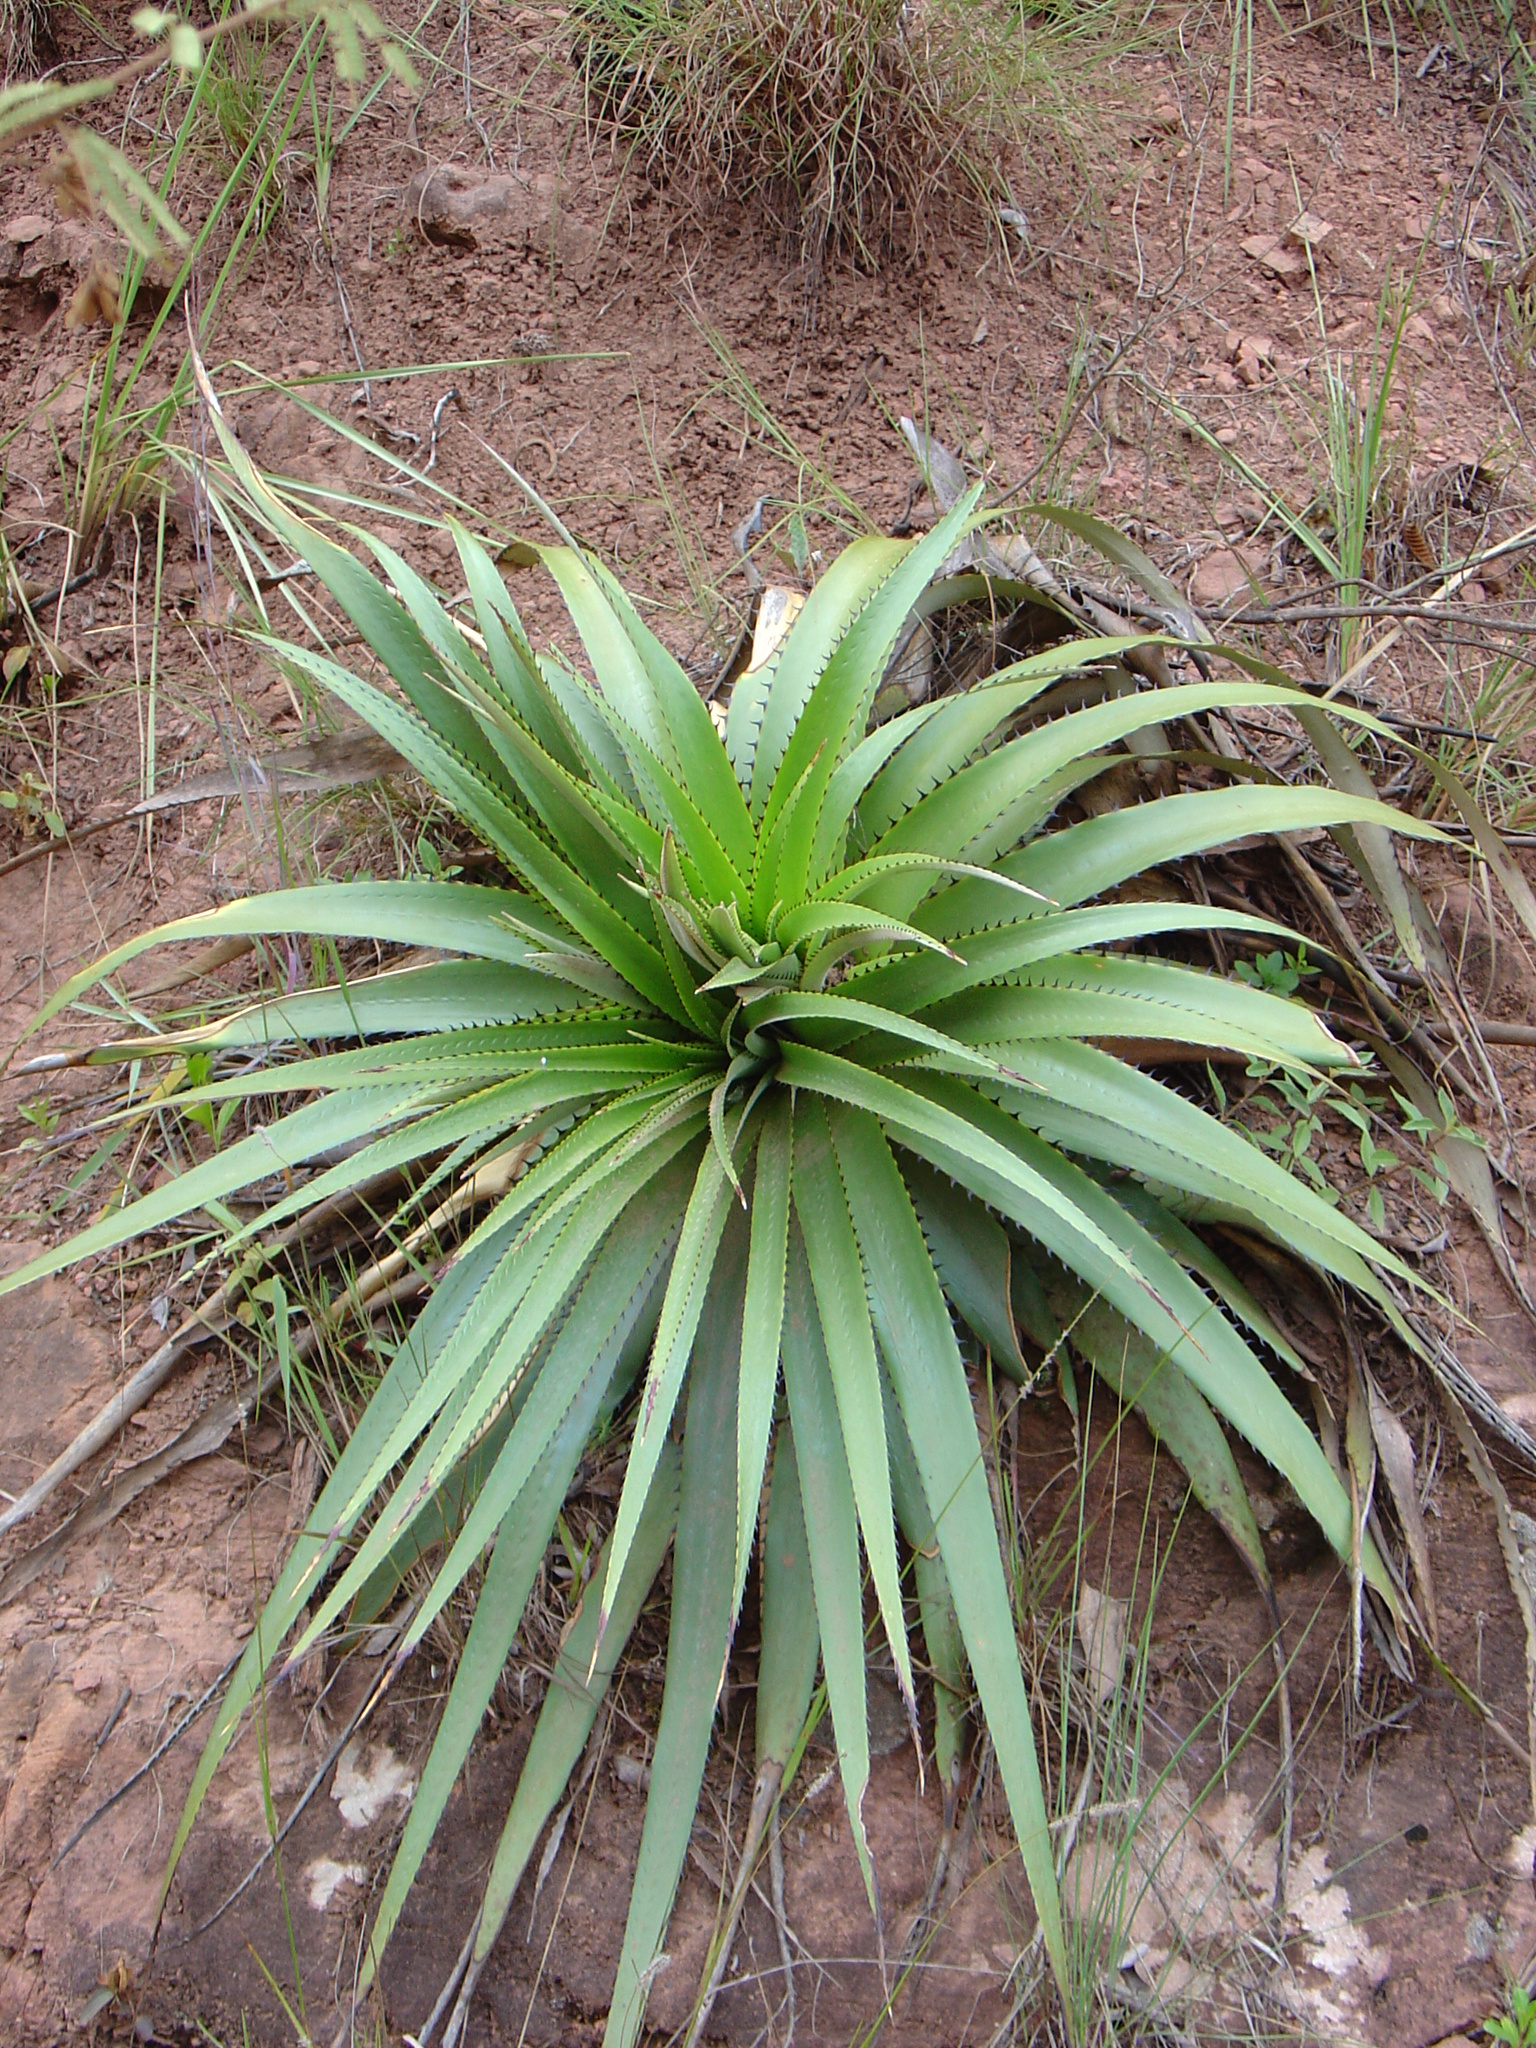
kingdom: Plantae
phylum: Tracheophyta
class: Liliopsida
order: Poales
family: Bromeliaceae
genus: Puya
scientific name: Puya nana
